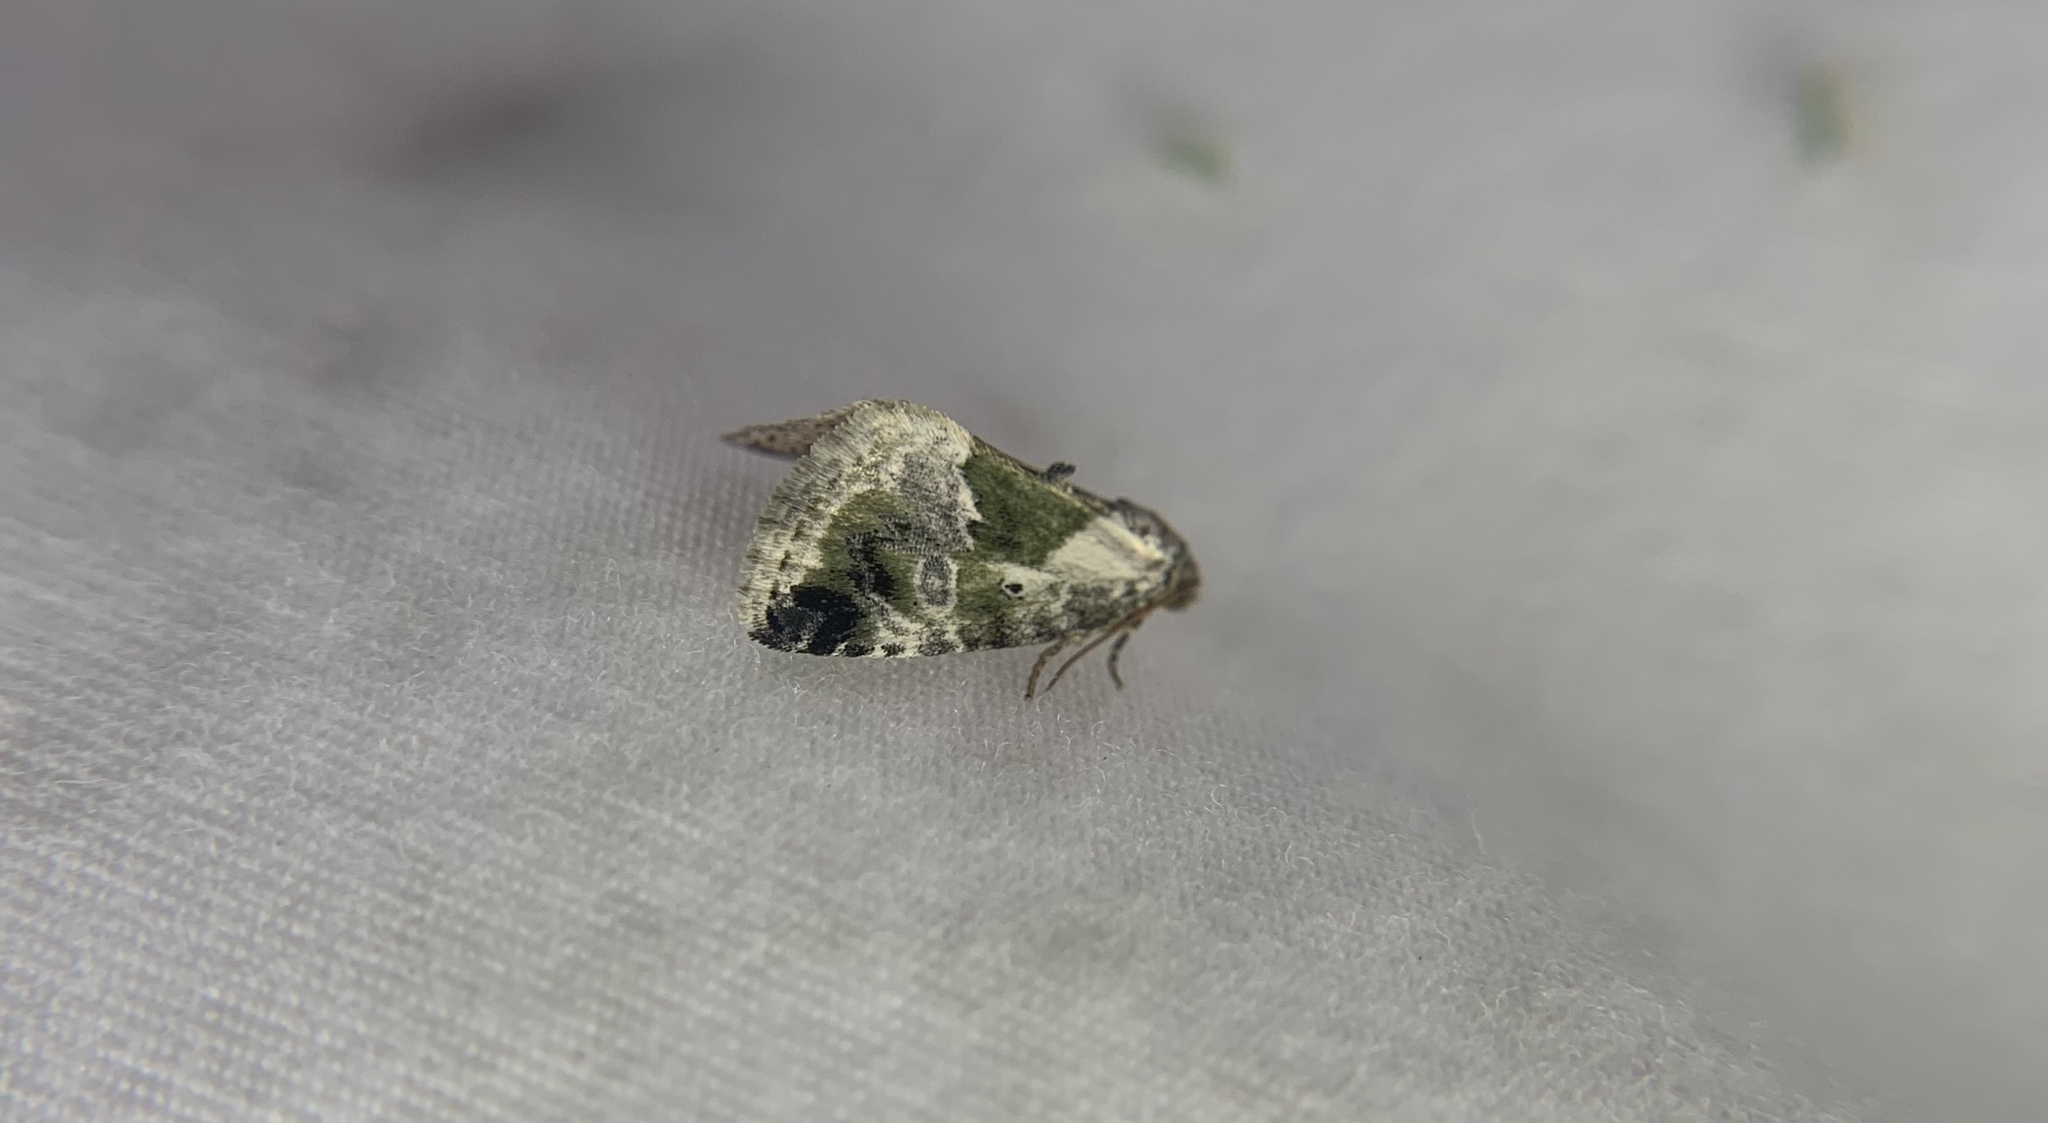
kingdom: Animalia
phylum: Arthropoda
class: Insecta
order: Lepidoptera
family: Noctuidae
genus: Maliattha
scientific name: Maliattha synochitis
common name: Black-dotted glyph
